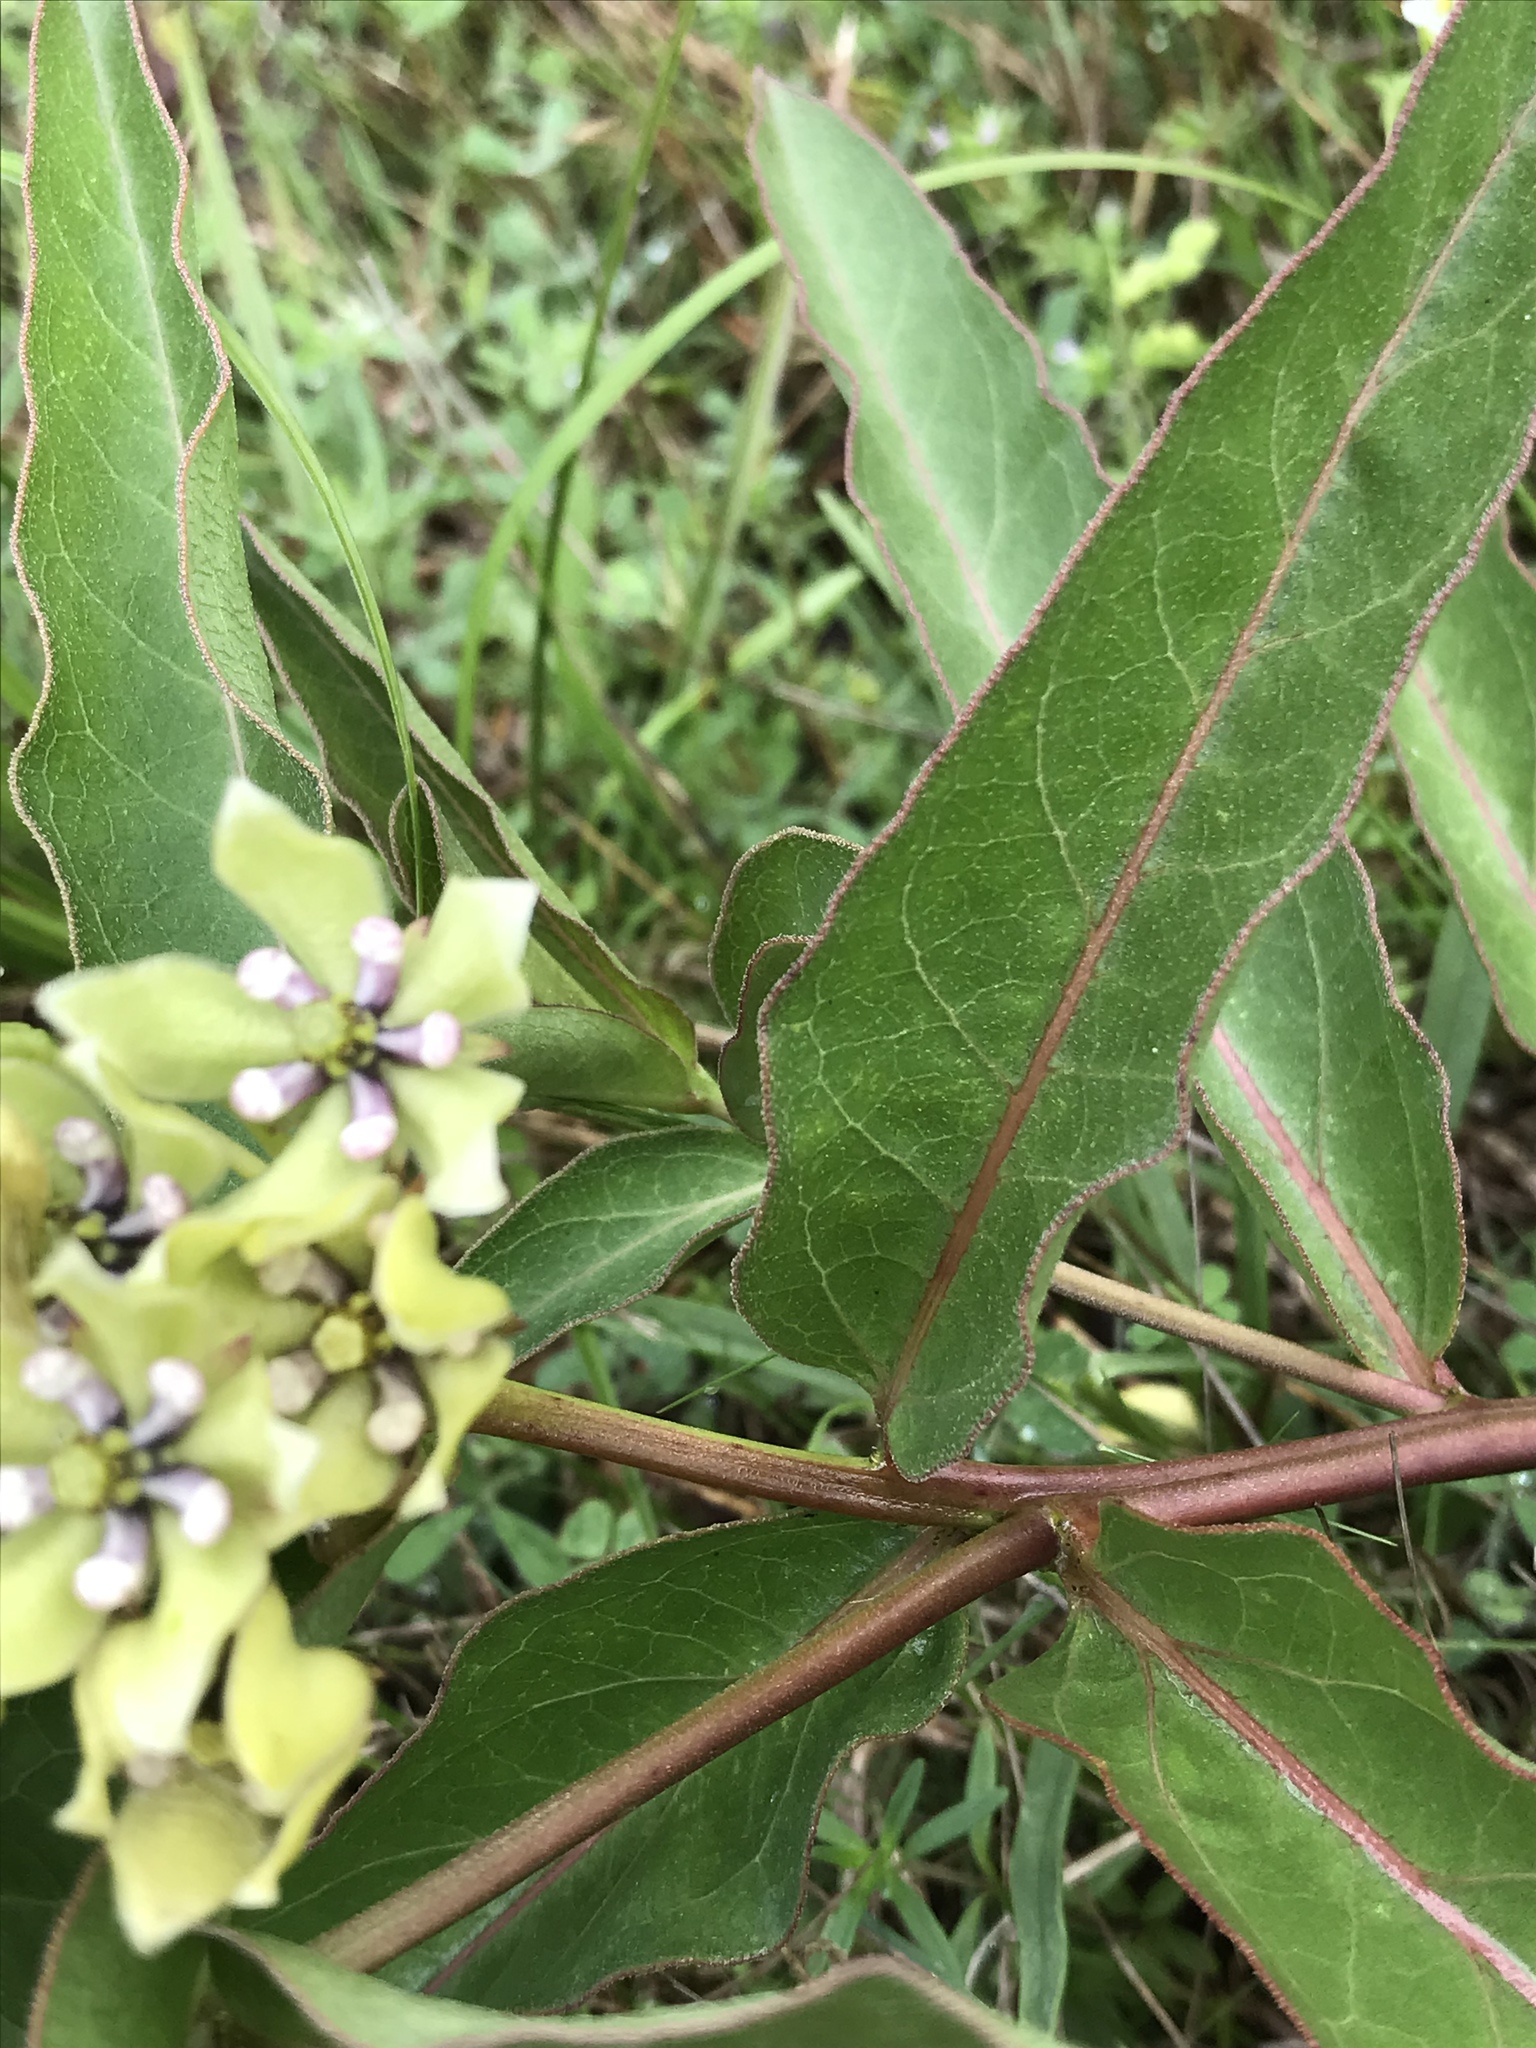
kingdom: Plantae
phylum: Tracheophyta
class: Magnoliopsida
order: Gentianales
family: Apocynaceae
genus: Asclepias
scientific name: Asclepias viridis
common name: Antelope-horns
